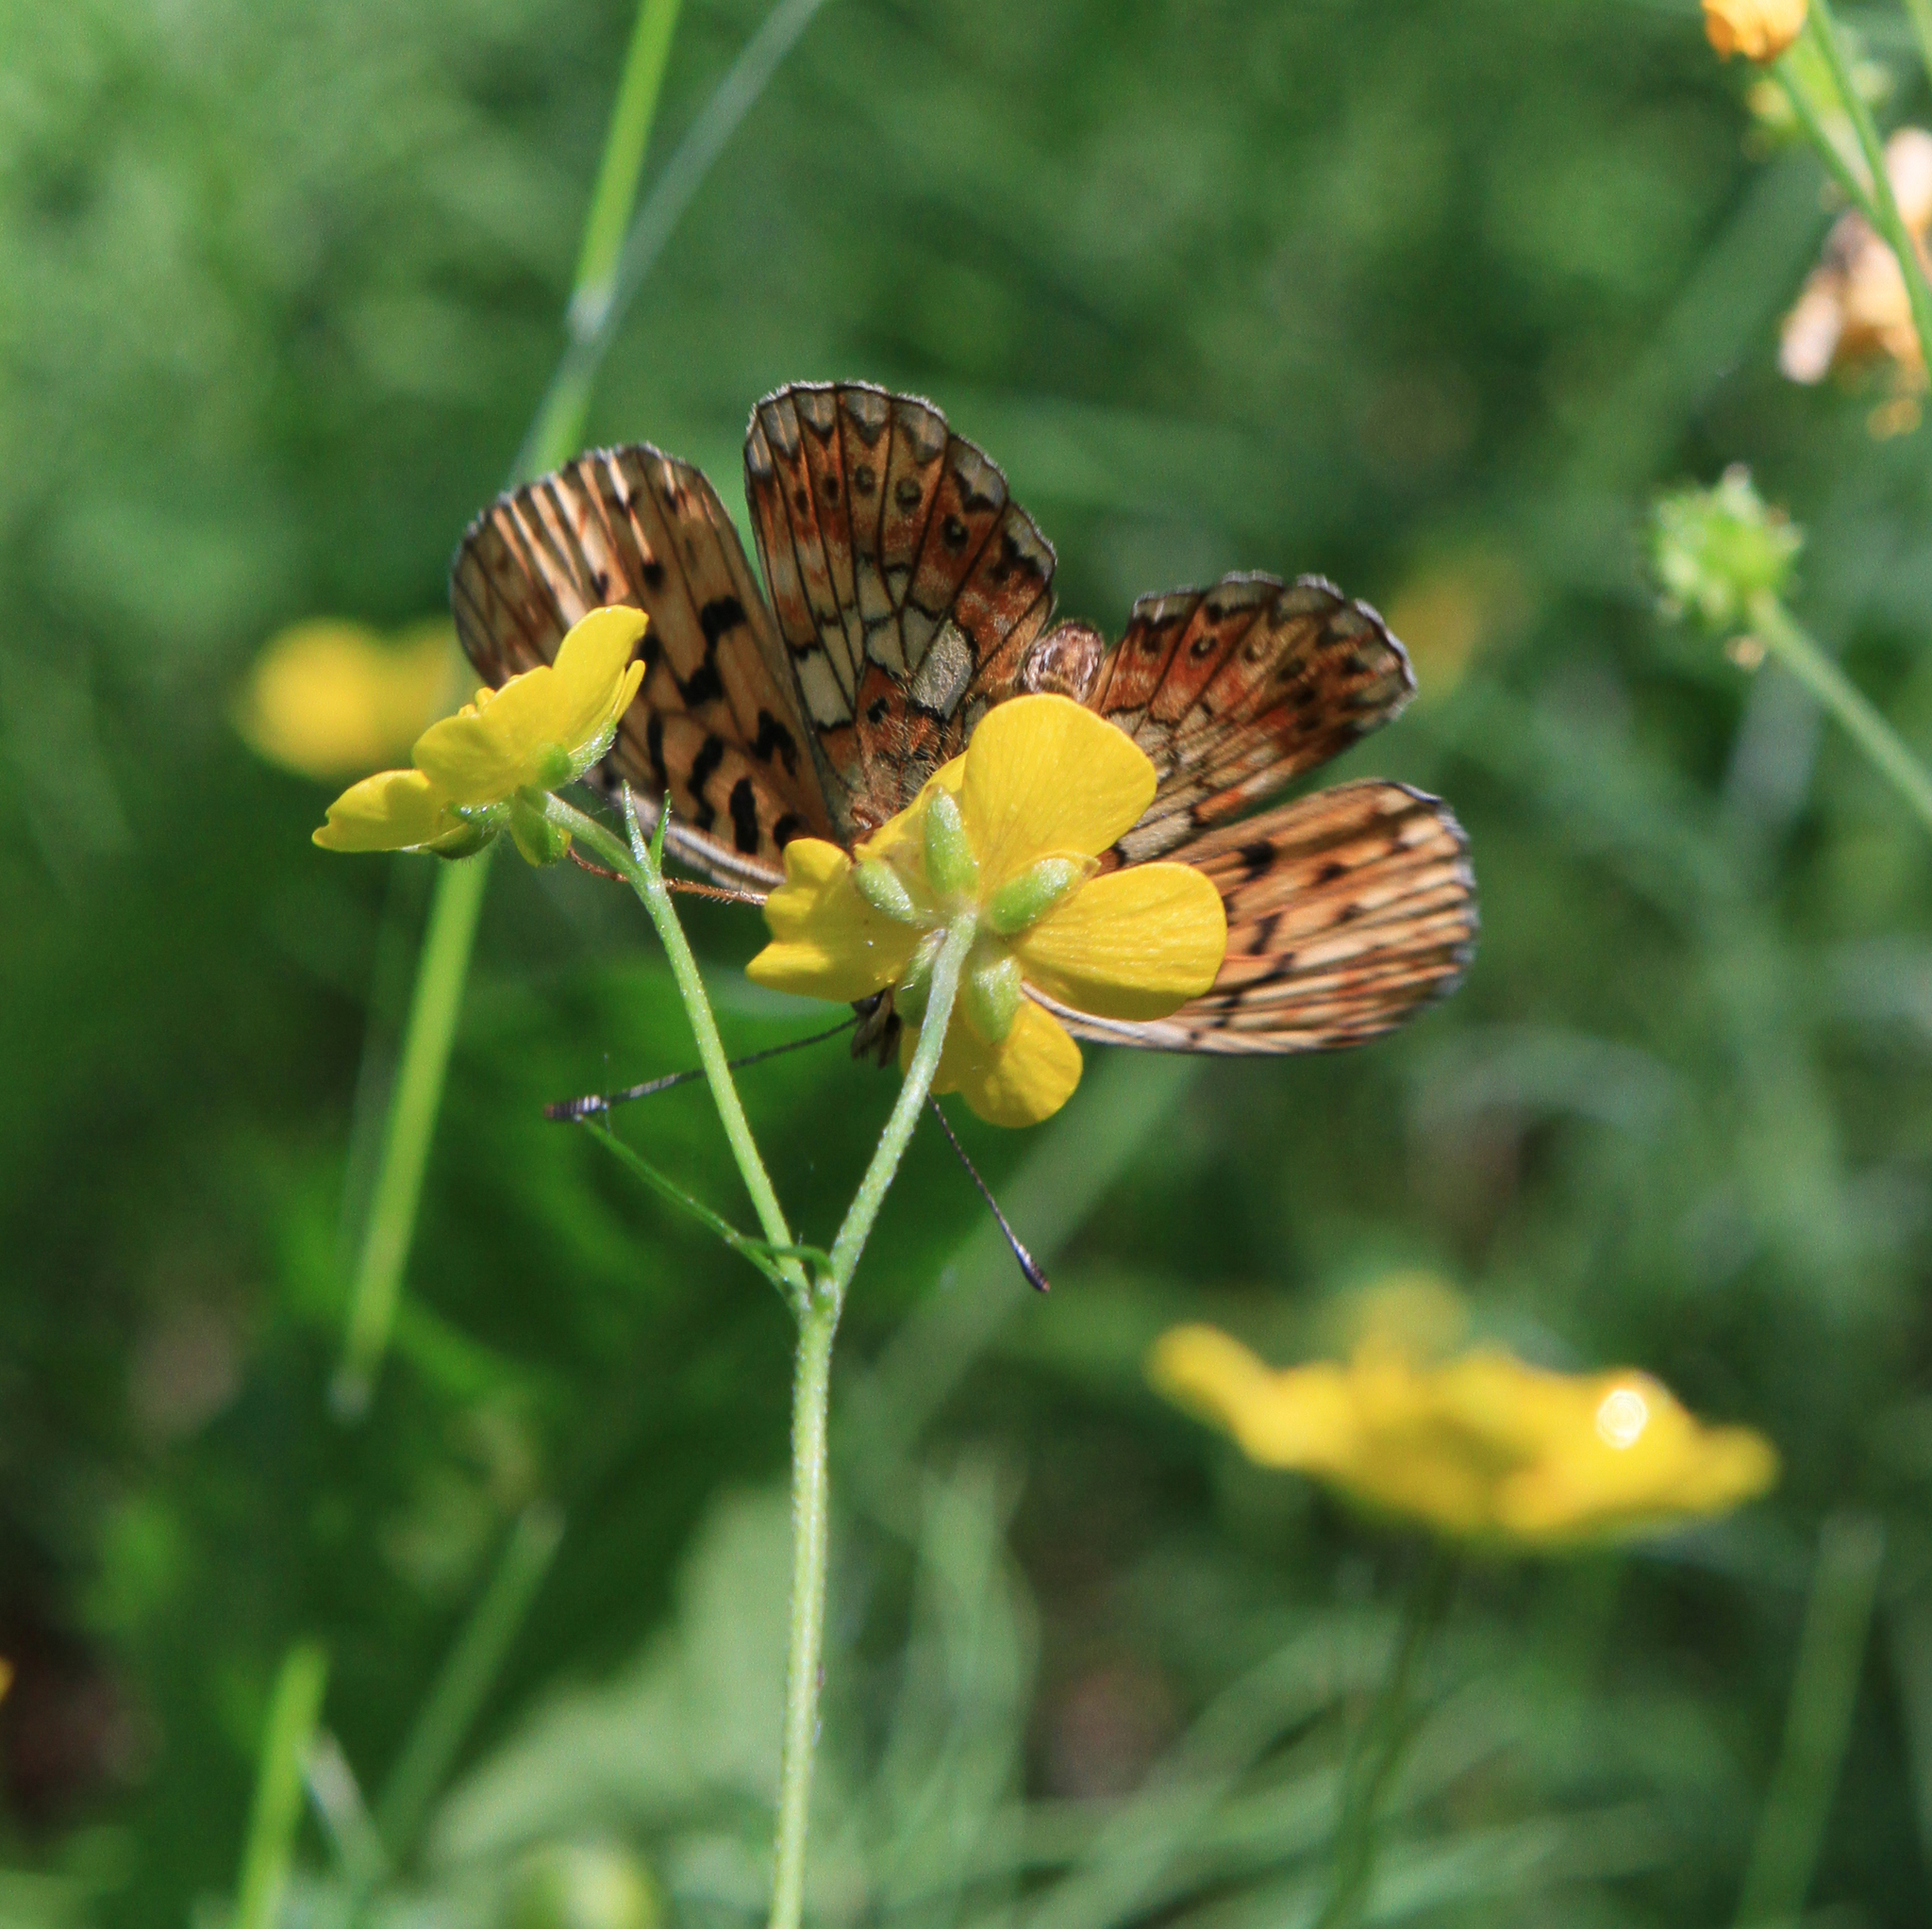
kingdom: Animalia
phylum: Arthropoda
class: Insecta
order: Lepidoptera
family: Nymphalidae
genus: Clossiana
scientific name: Clossiana oscarus
